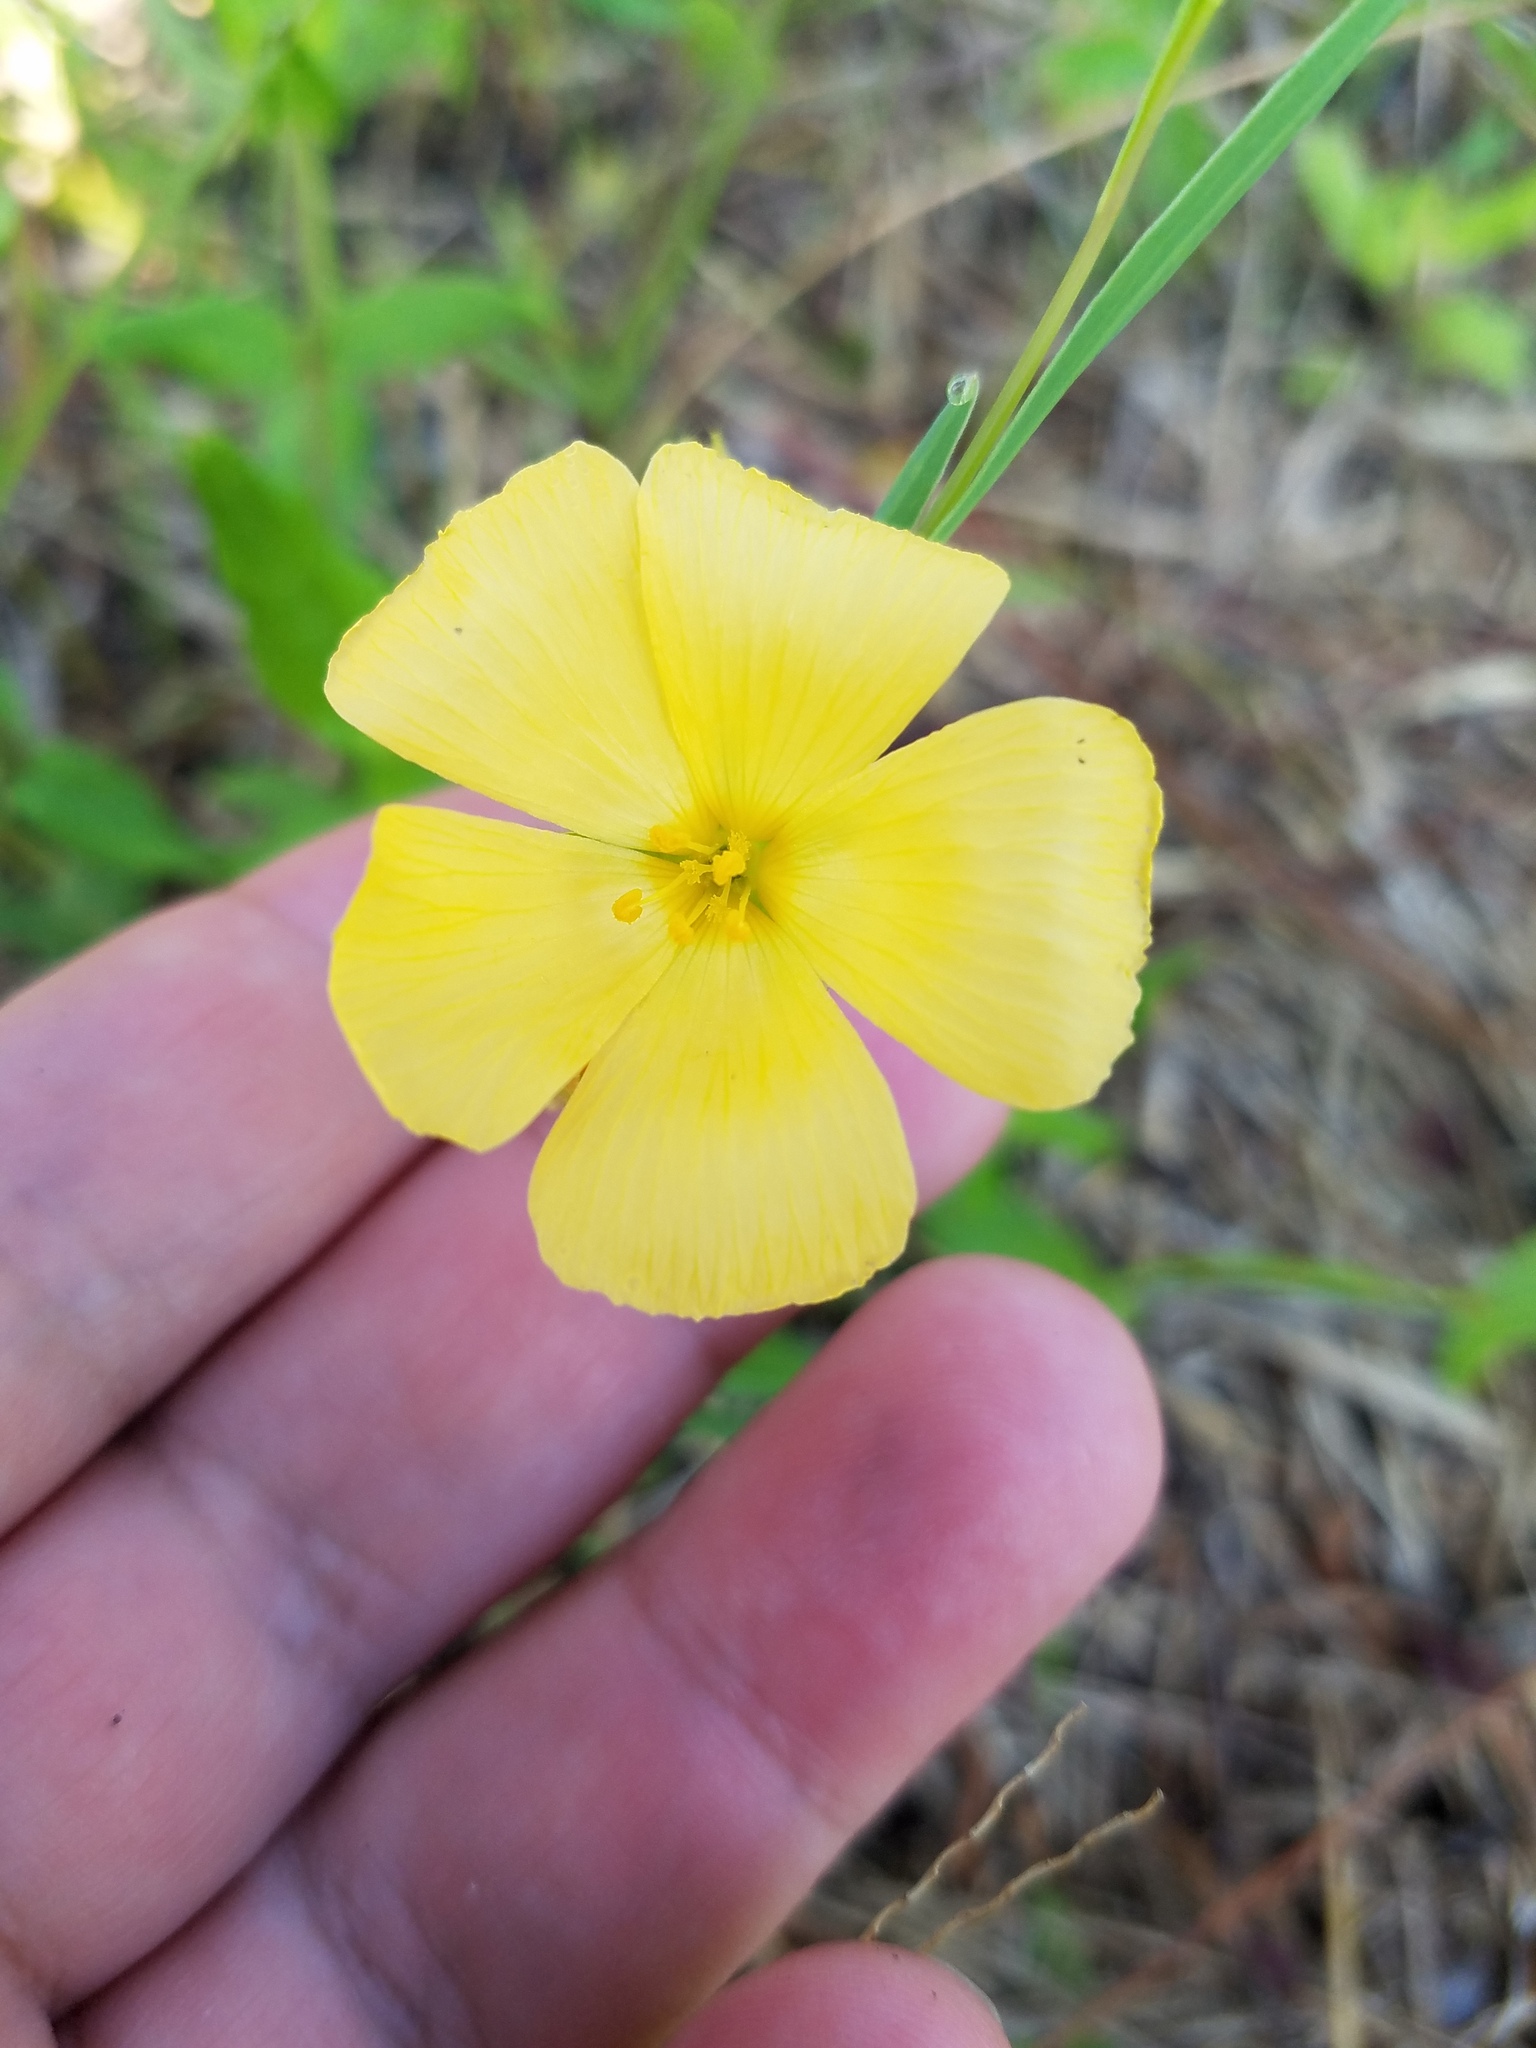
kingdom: Plantae
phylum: Tracheophyta
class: Magnoliopsida
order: Malpighiales
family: Turneraceae
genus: Piriqueta
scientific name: Piriqueta cistoides
